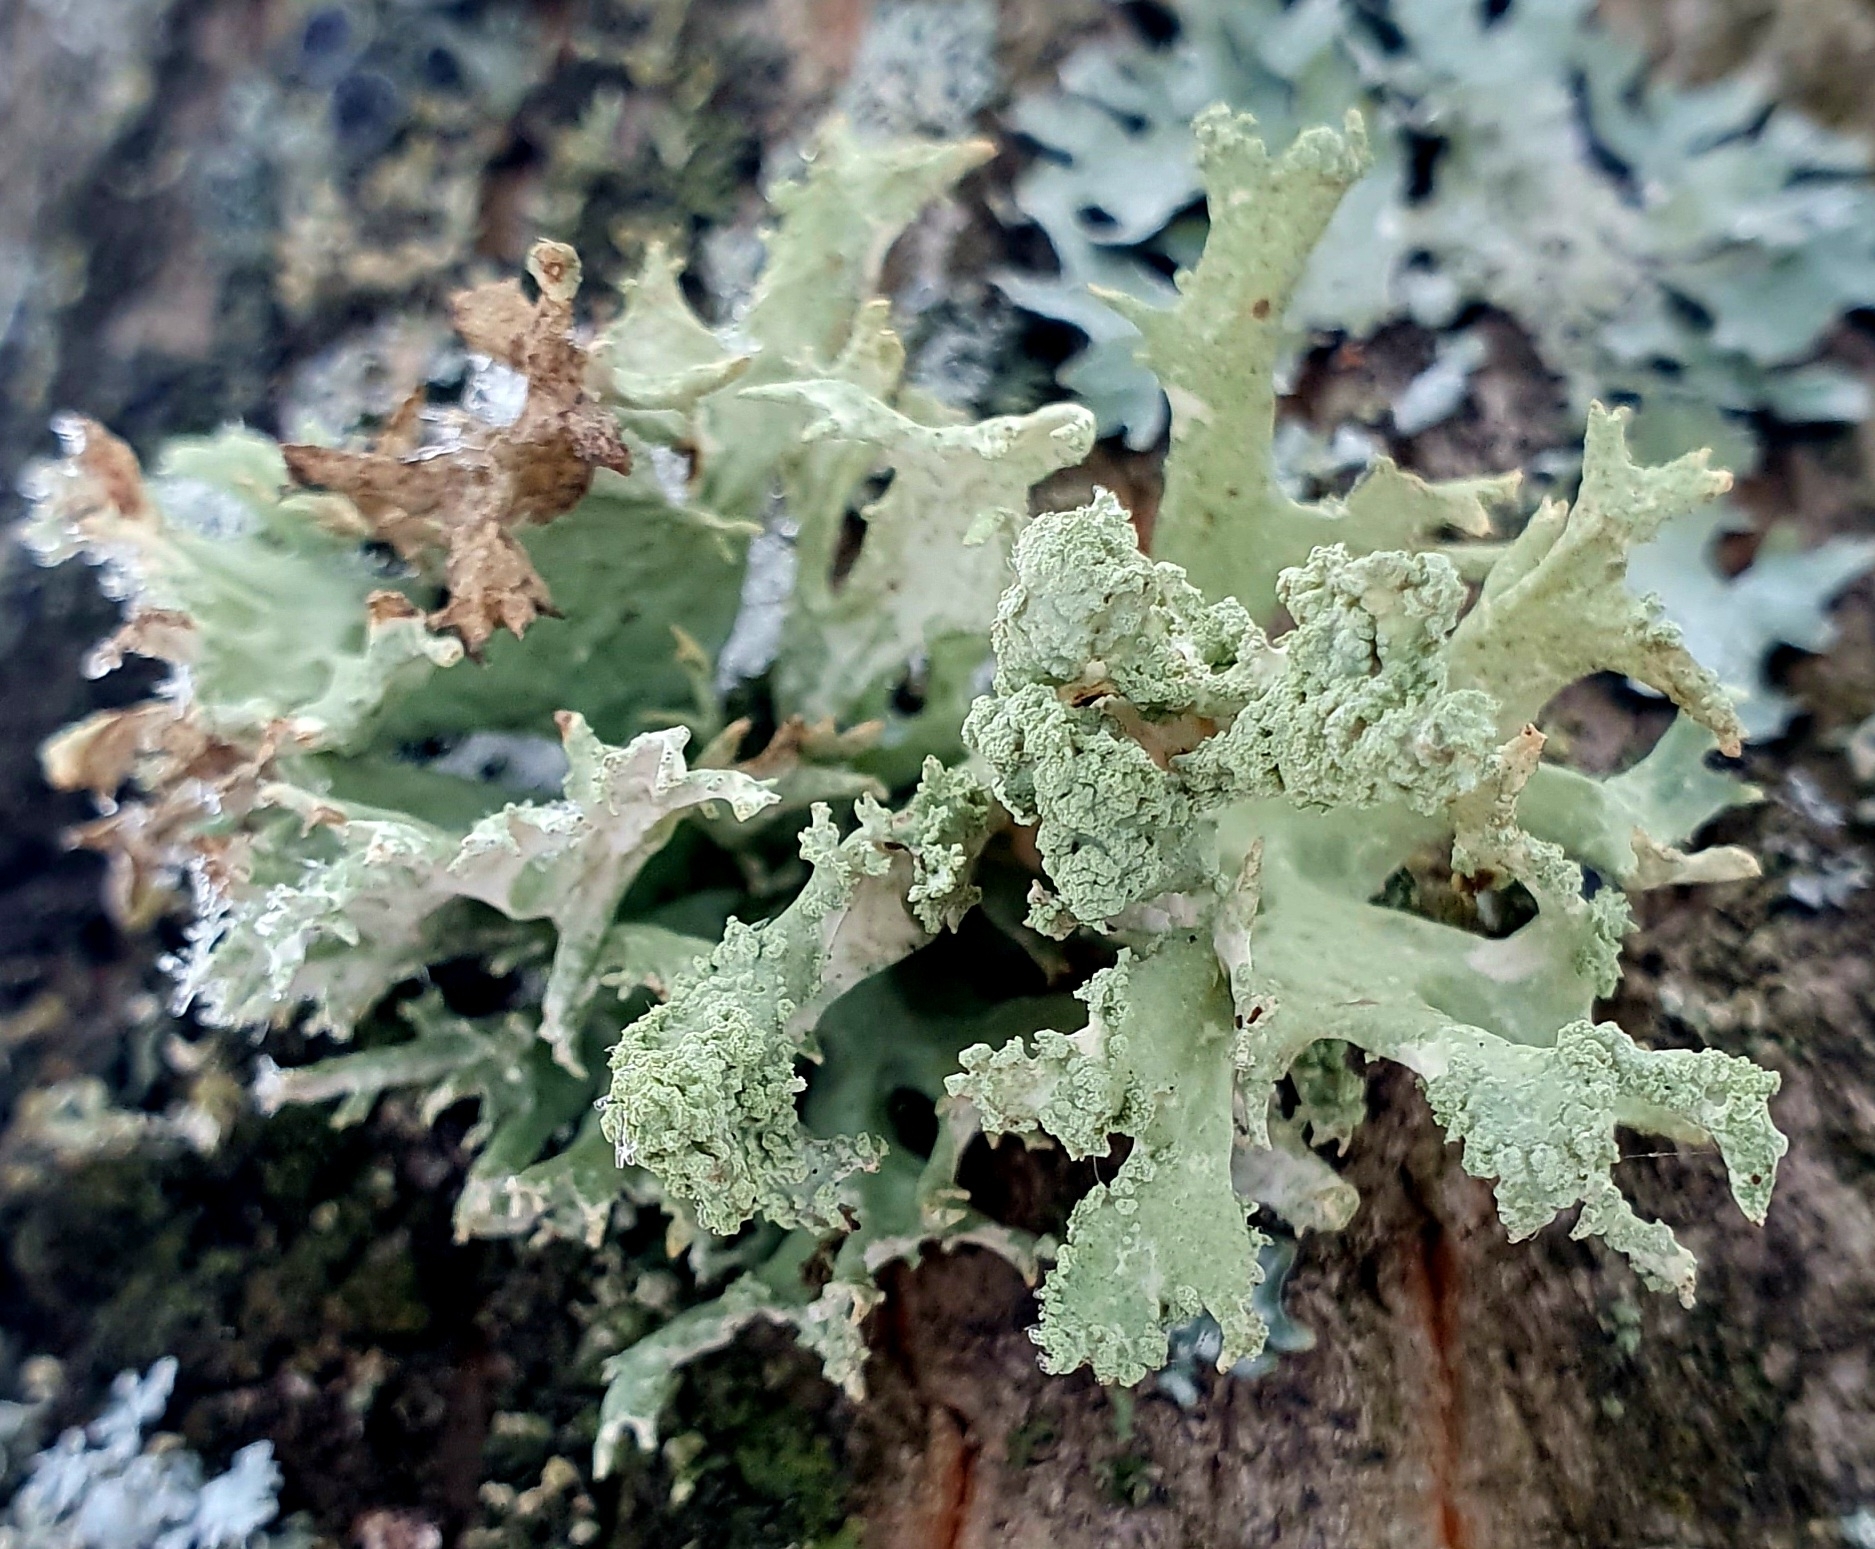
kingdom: Fungi
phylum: Ascomycota
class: Lecanoromycetes
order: Lecanorales
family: Parmeliaceae
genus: Evernia
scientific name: Evernia prunastri
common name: Oak moss
